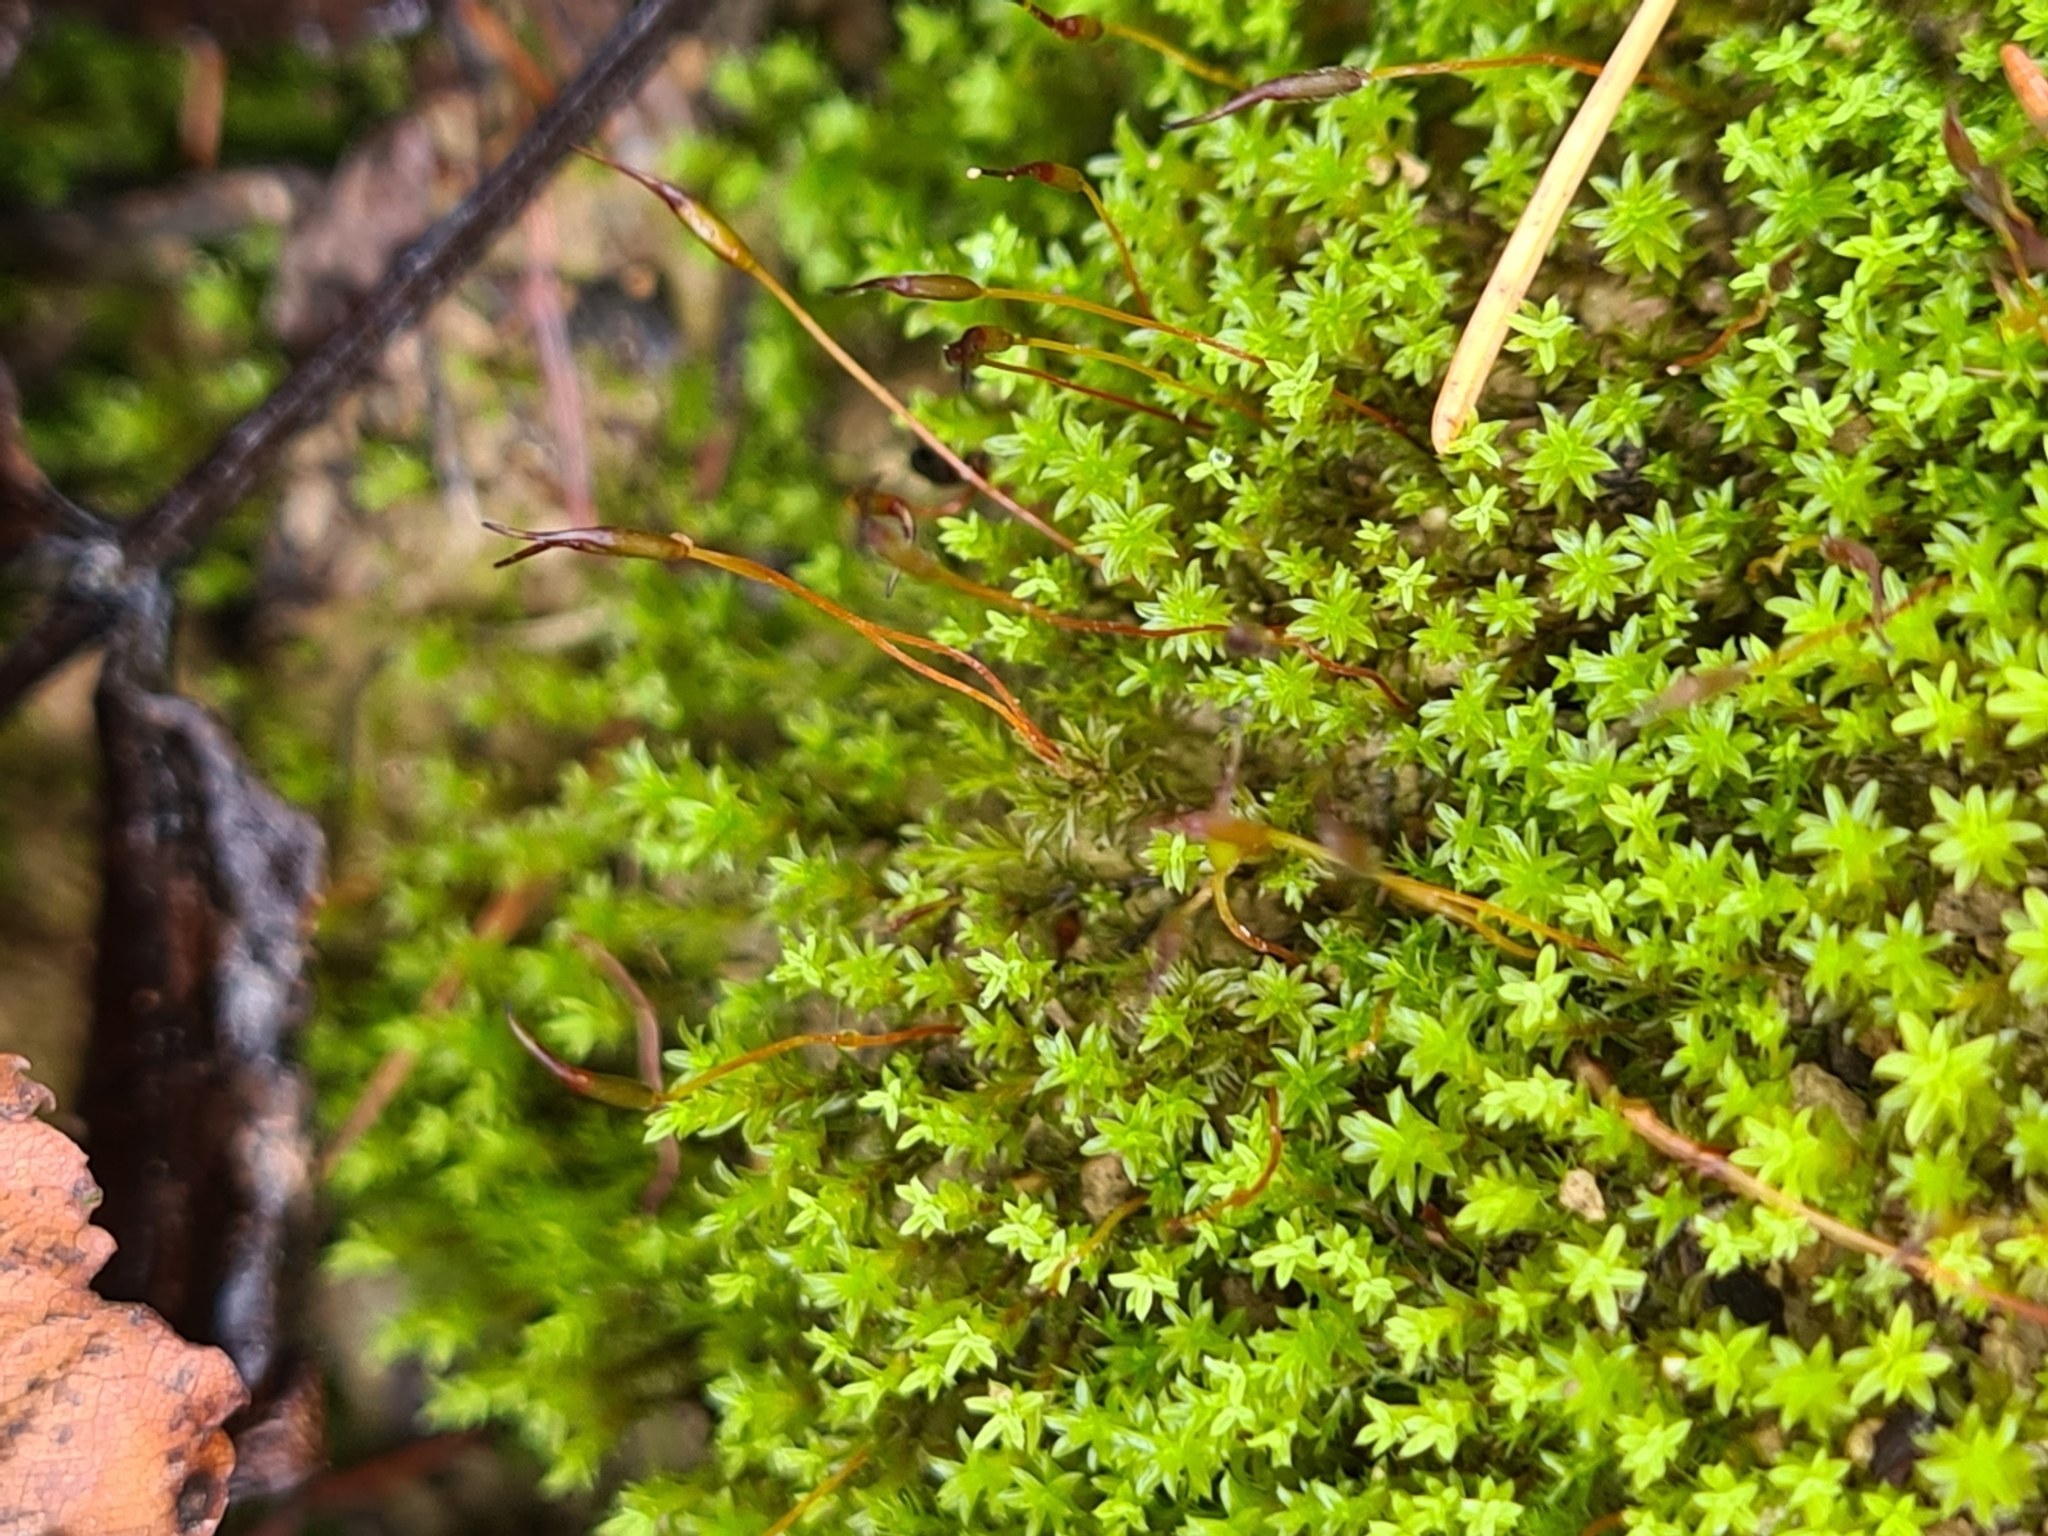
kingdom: Plantae
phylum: Bryophyta
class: Bryopsida
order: Pottiales
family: Pottiaceae
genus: Barbula
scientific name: Barbula unguiculata
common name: Prickly beard moss
